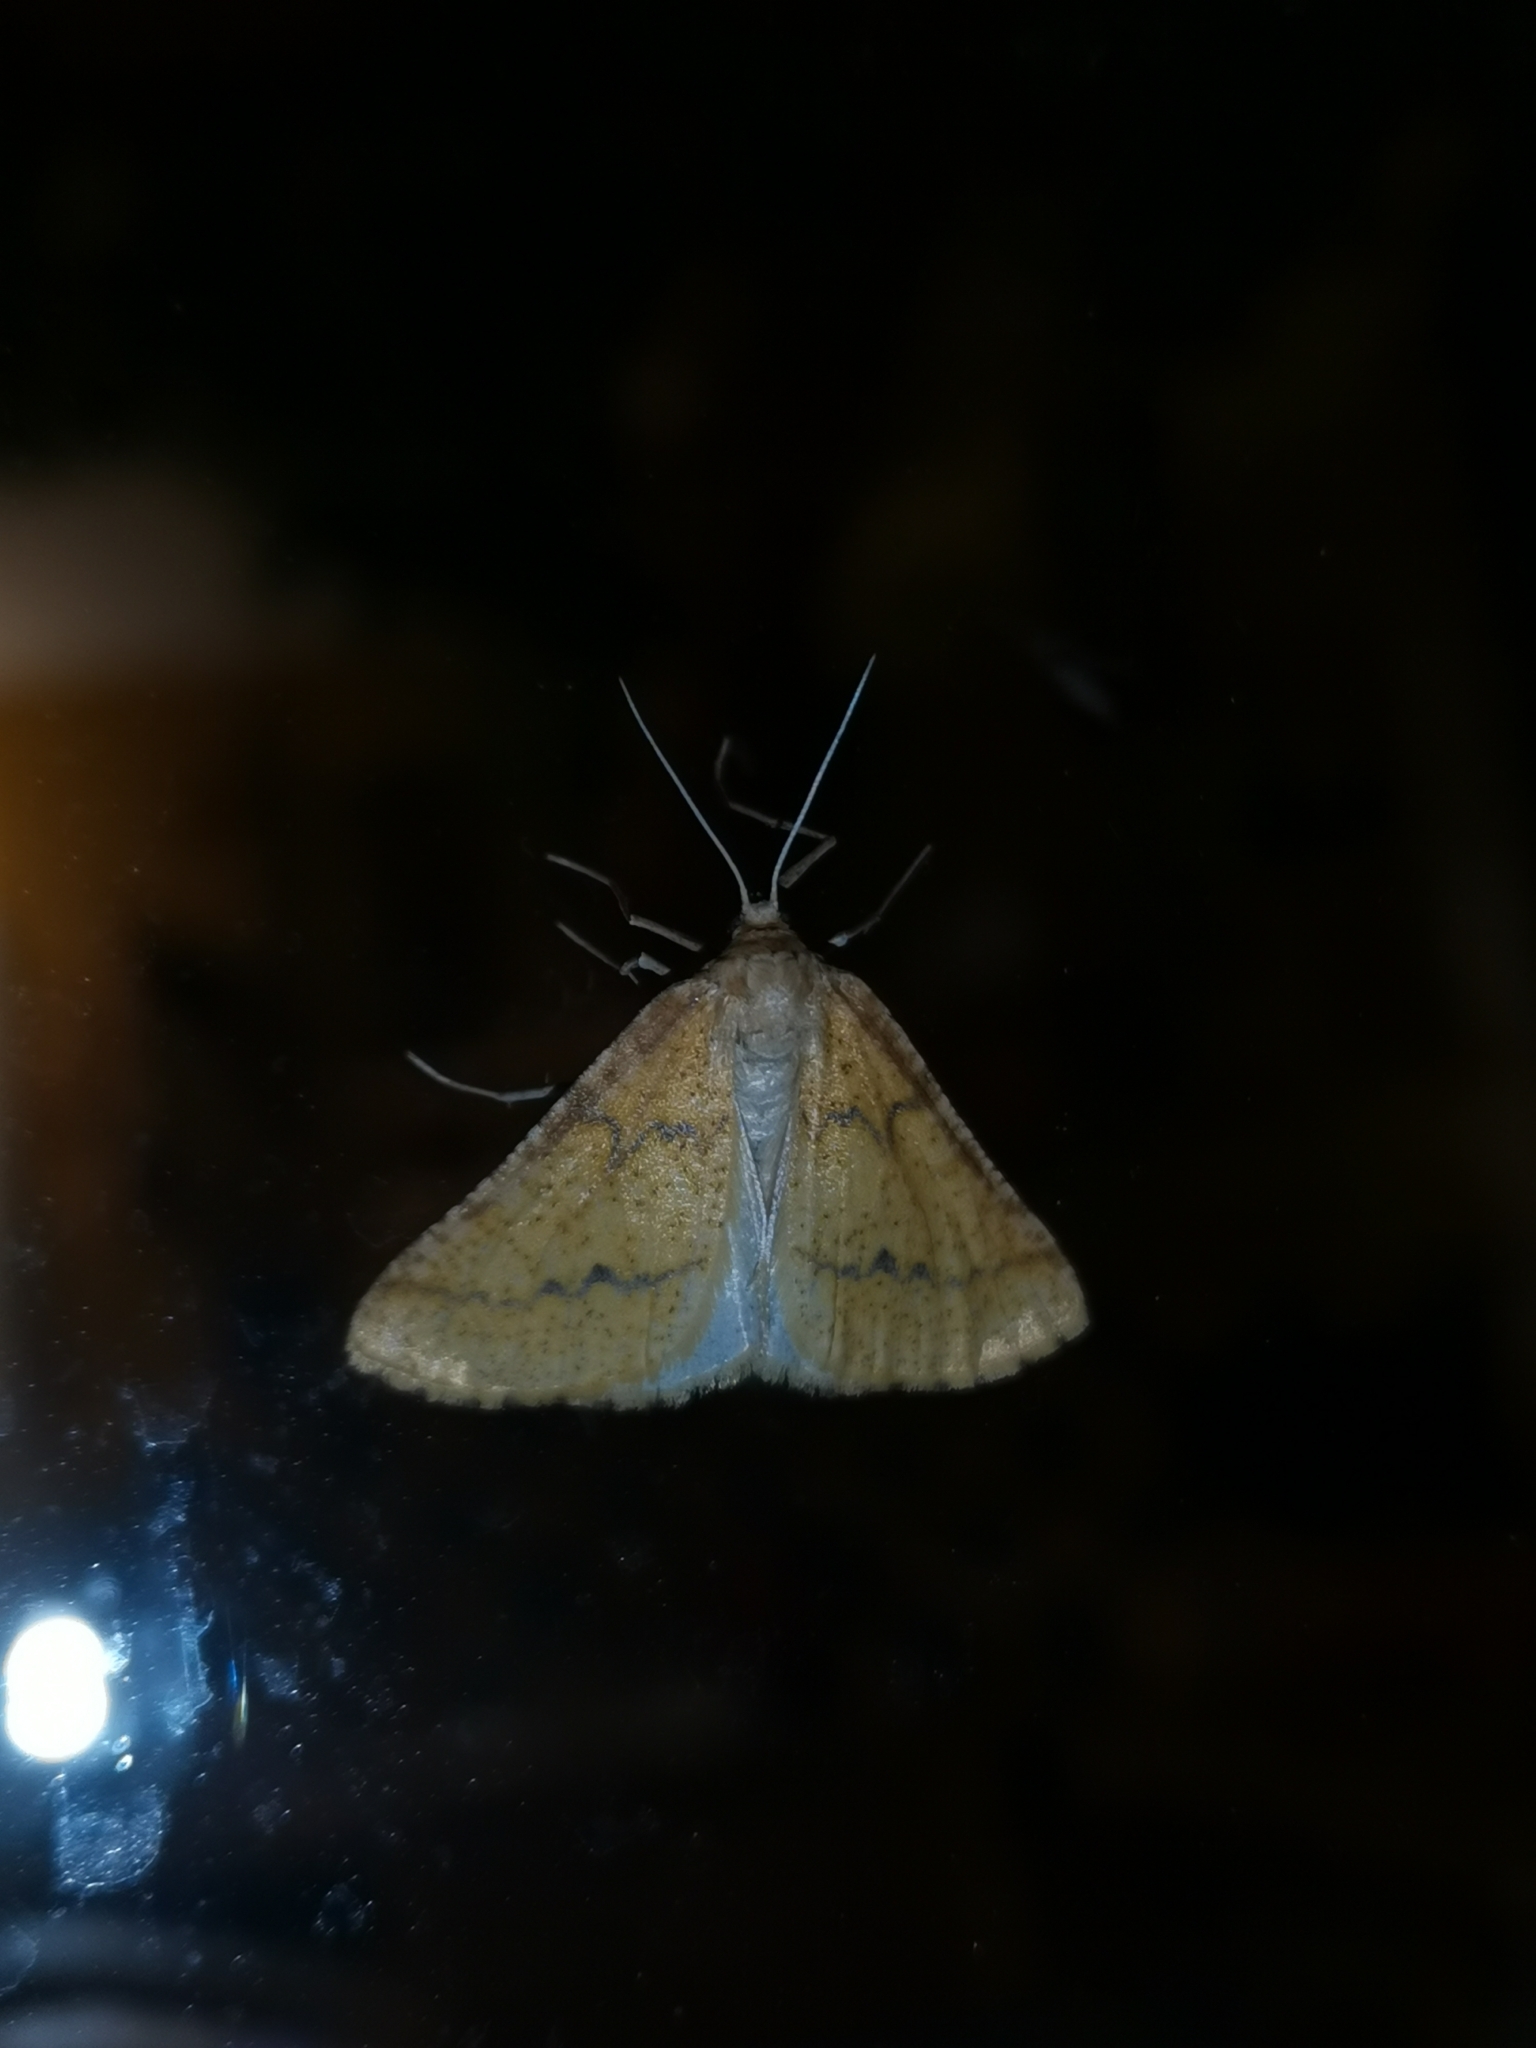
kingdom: Animalia
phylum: Arthropoda
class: Insecta
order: Lepidoptera
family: Geometridae
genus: Aspitates
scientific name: Aspitates ochrearia
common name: Yellow belle
